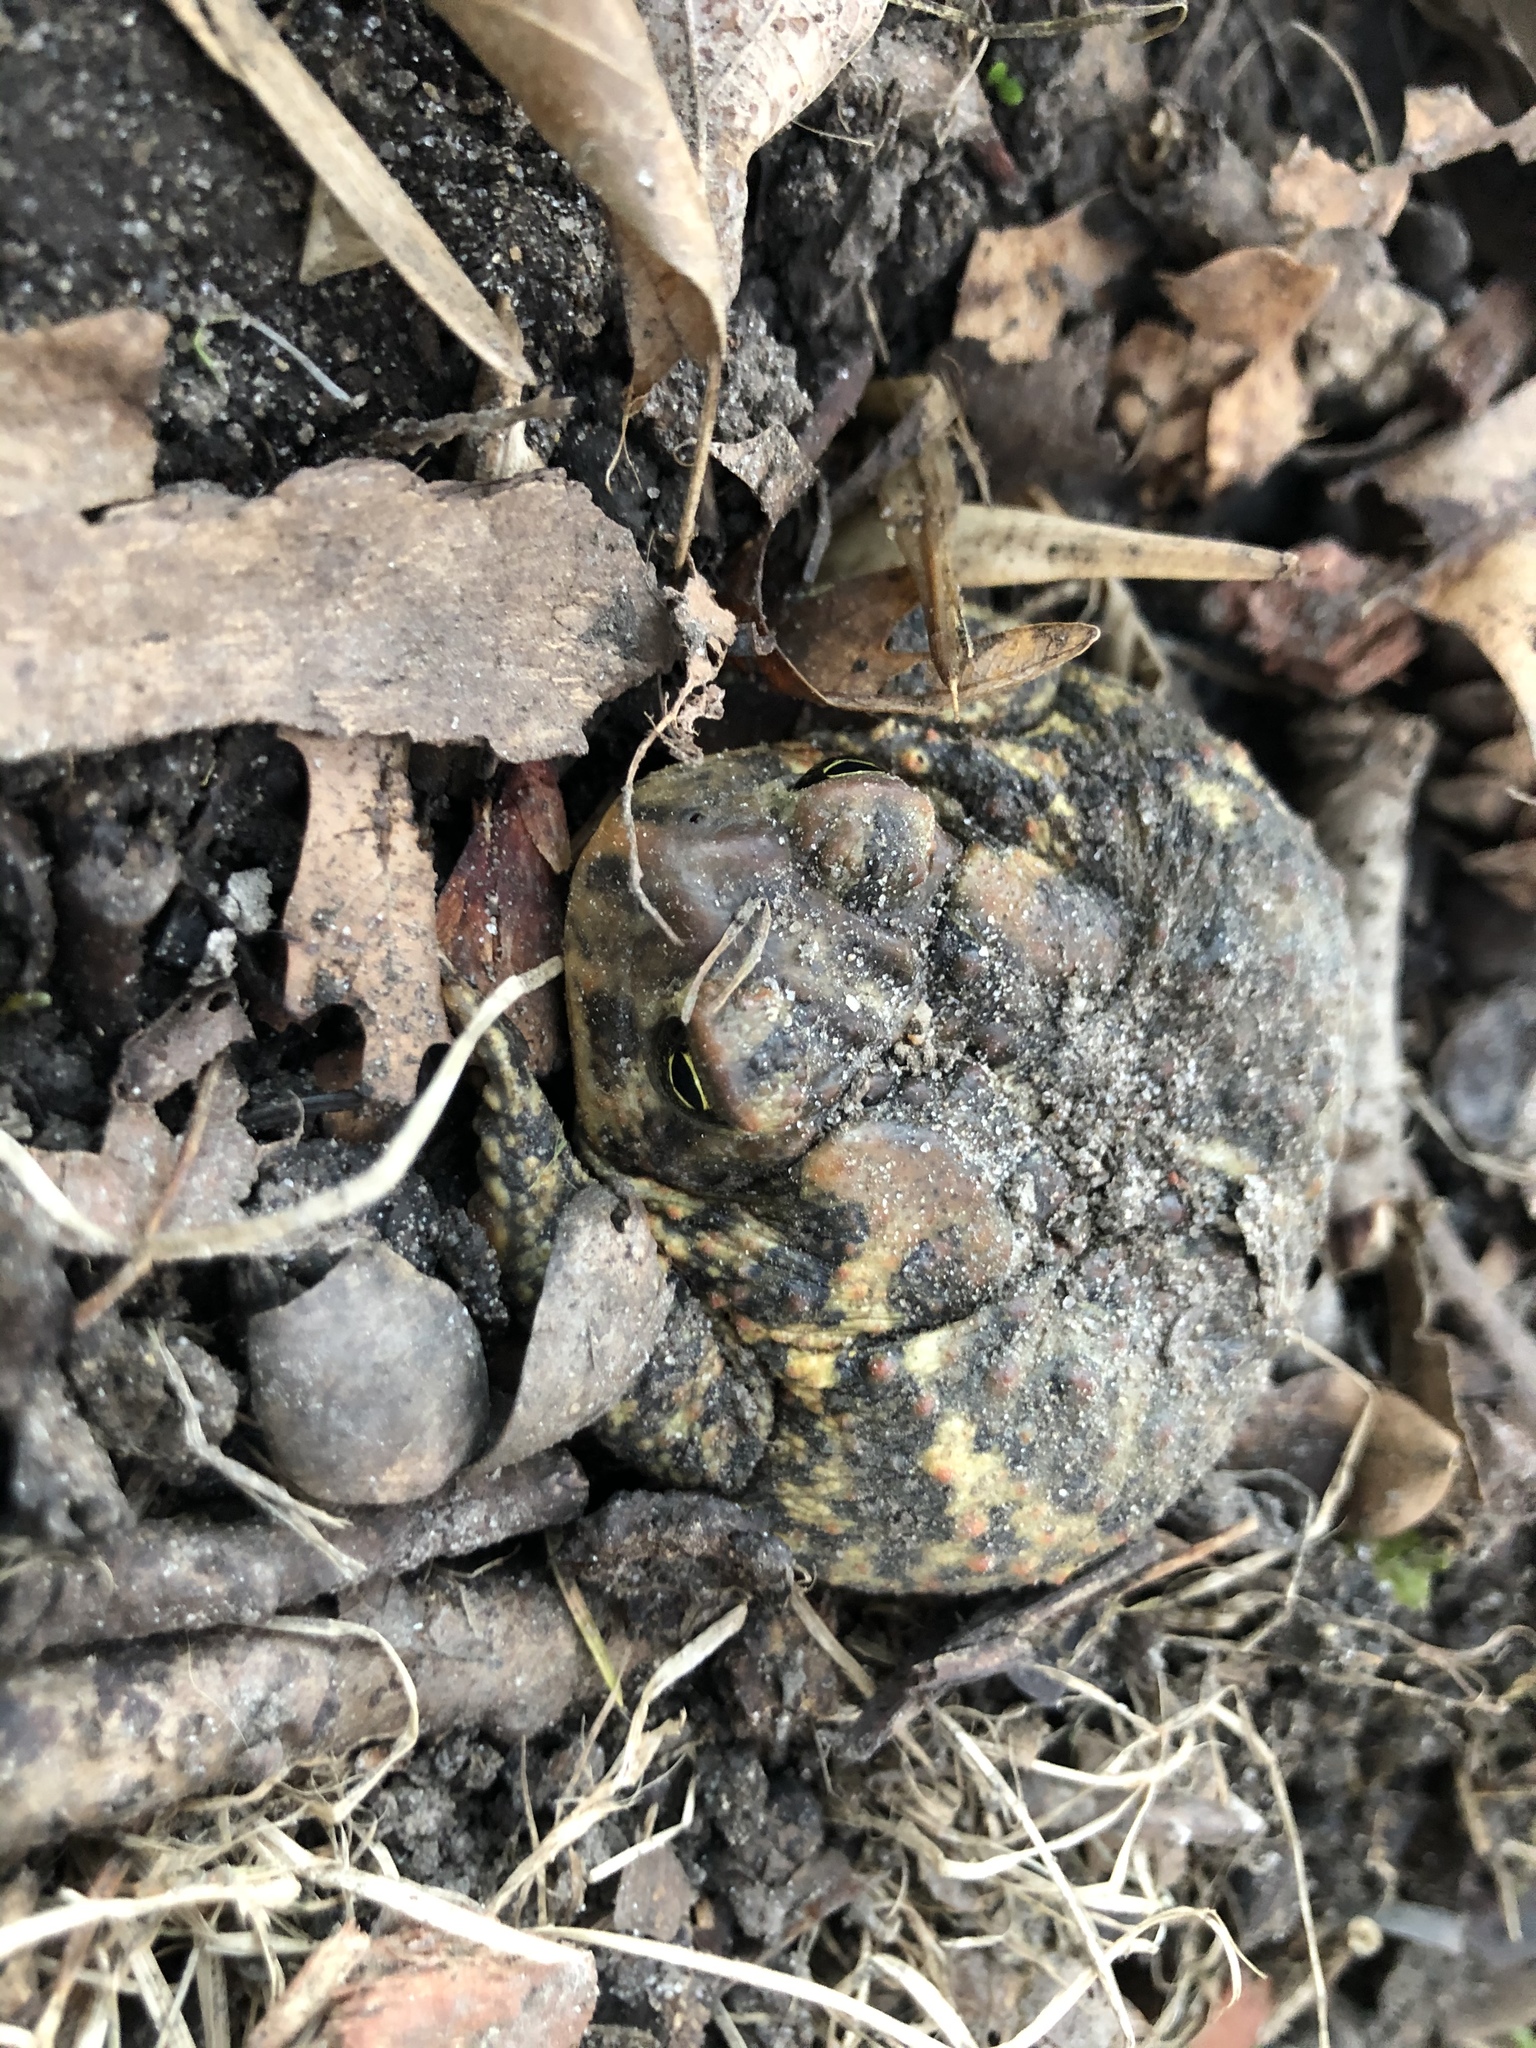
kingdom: Animalia
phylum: Chordata
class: Amphibia
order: Anura
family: Bufonidae
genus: Anaxyrus
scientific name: Anaxyrus americanus
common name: American toad
